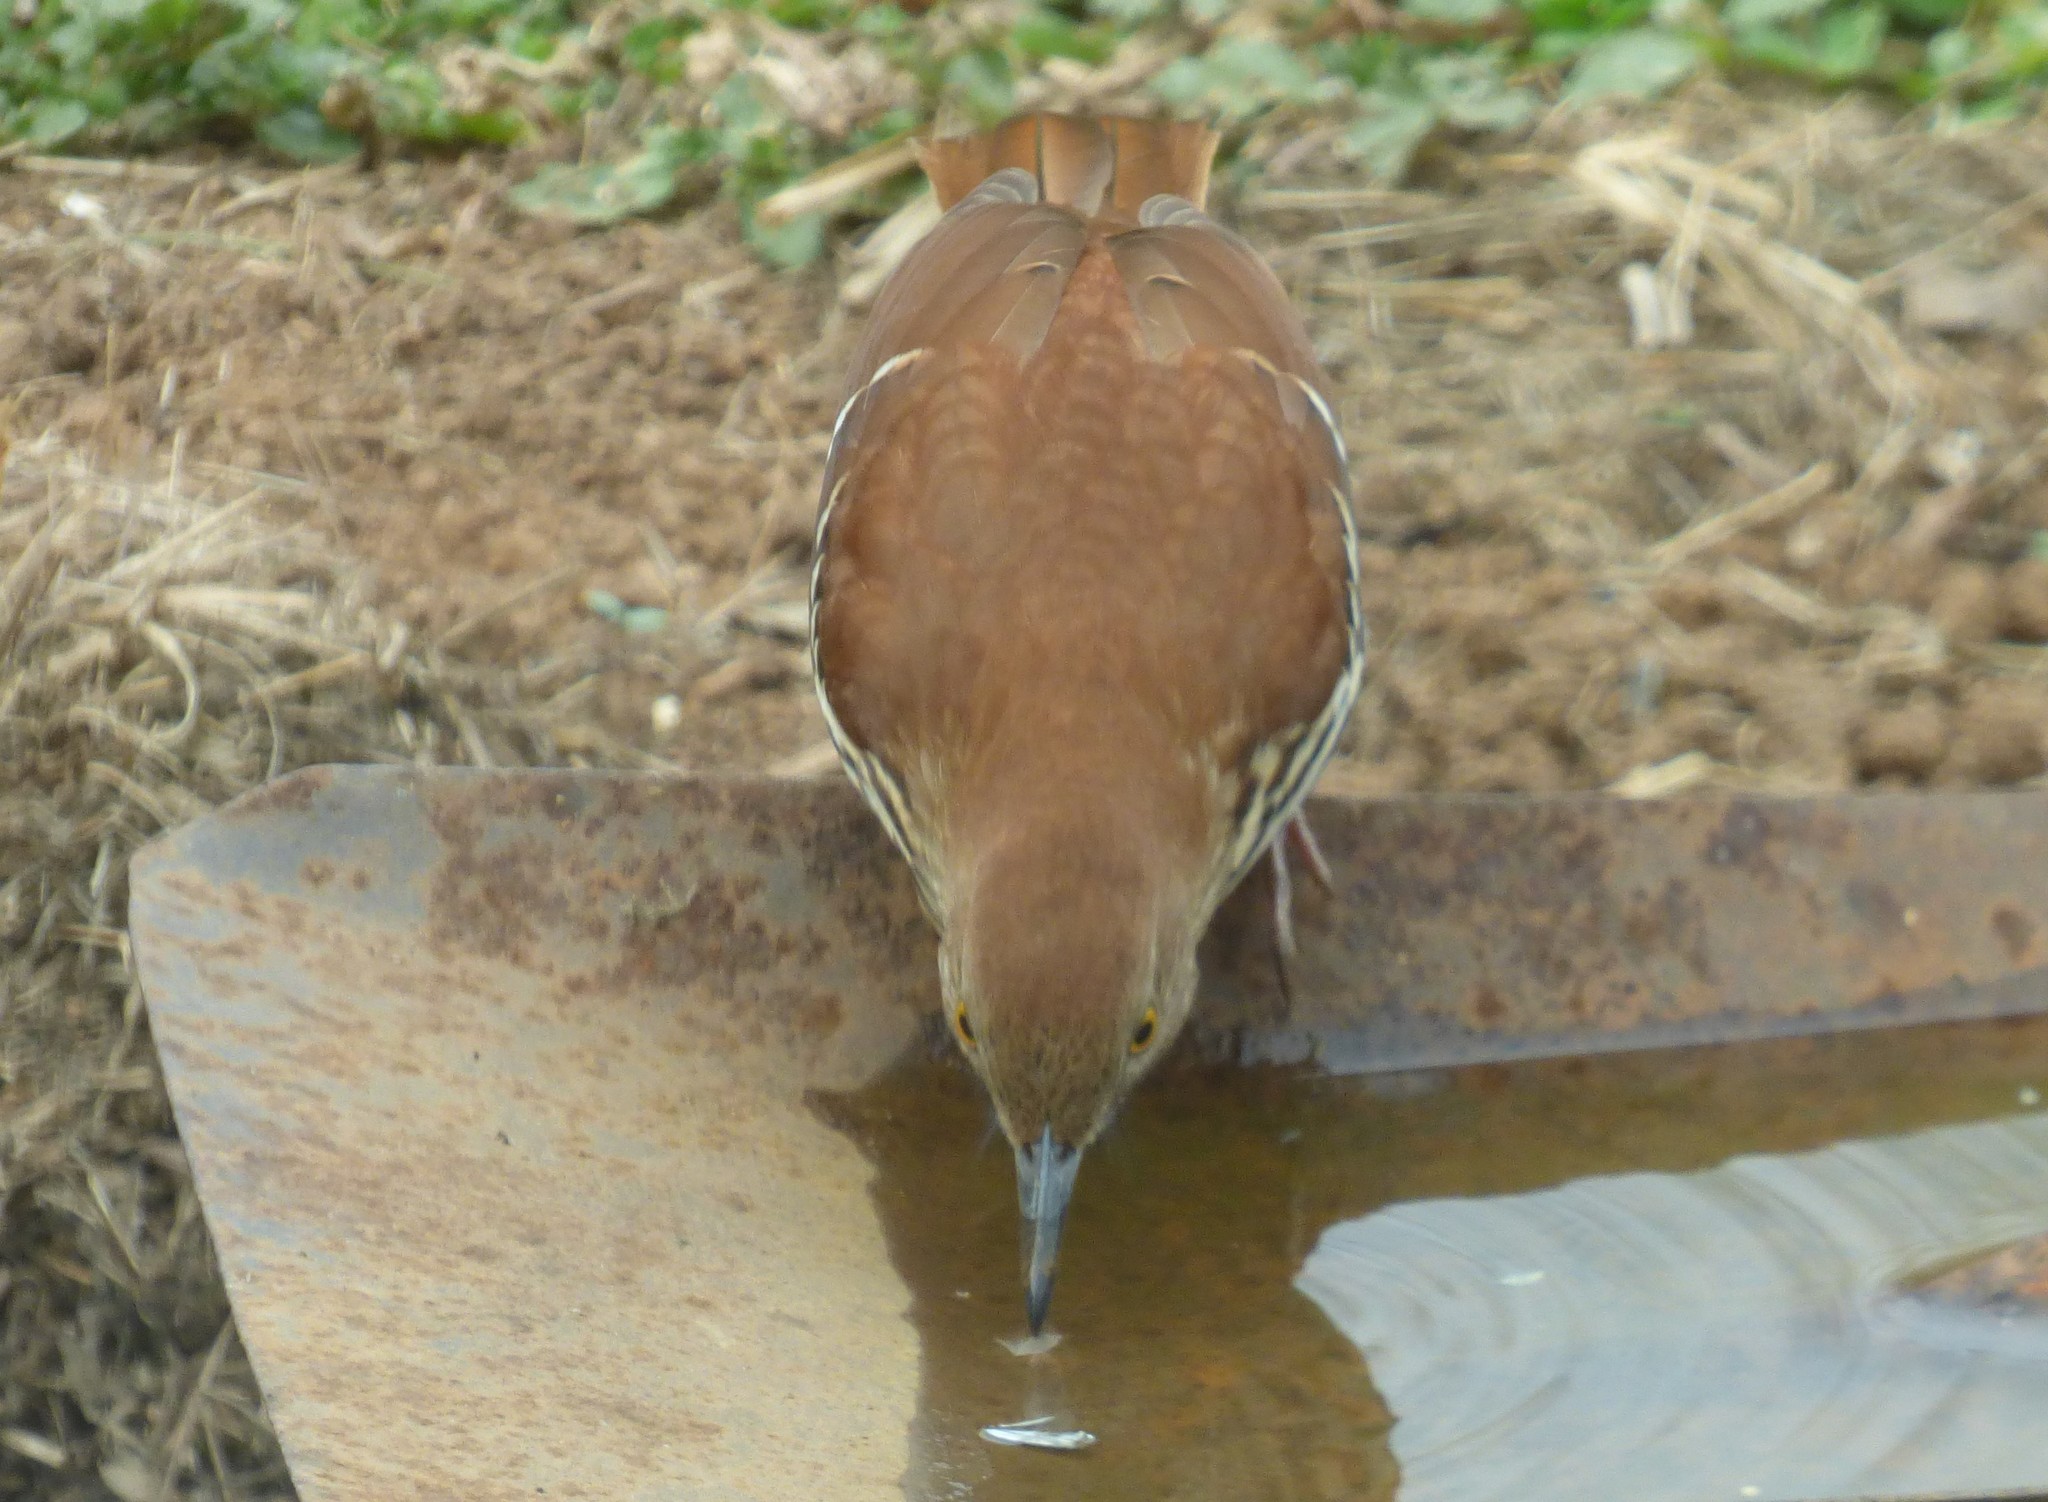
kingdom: Animalia
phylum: Chordata
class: Aves
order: Passeriformes
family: Mimidae
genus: Toxostoma
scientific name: Toxostoma rufum
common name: Brown thrasher
